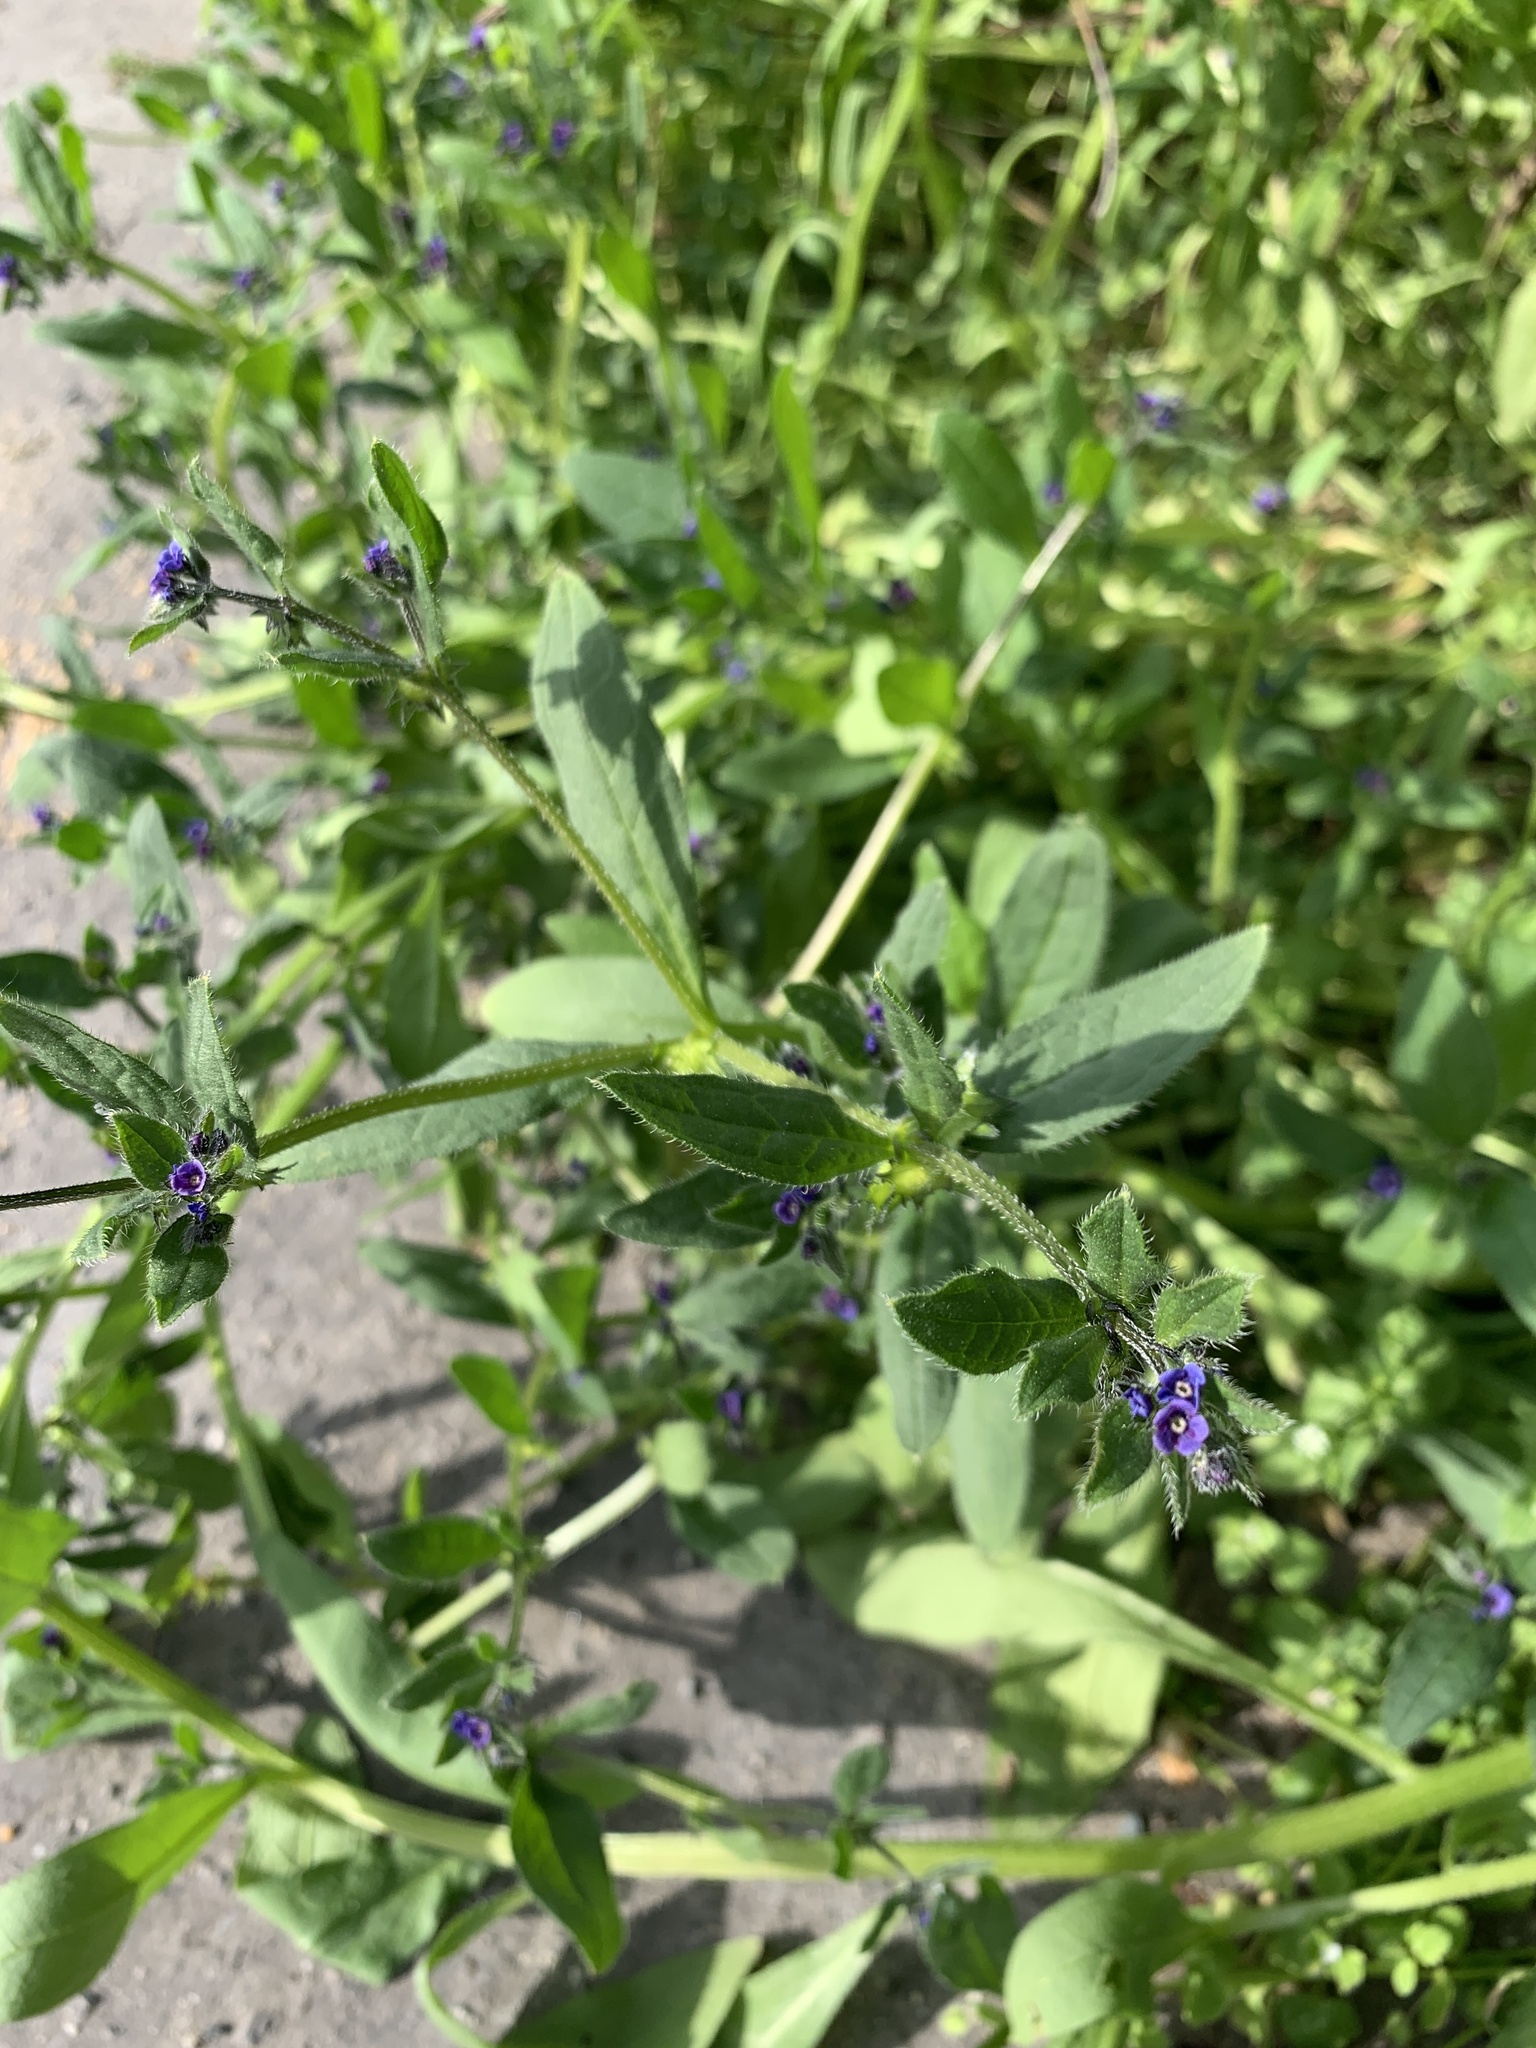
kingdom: Plantae
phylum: Tracheophyta
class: Magnoliopsida
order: Boraginales
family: Boraginaceae
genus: Asperugo
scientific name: Asperugo procumbens
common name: Madwort
